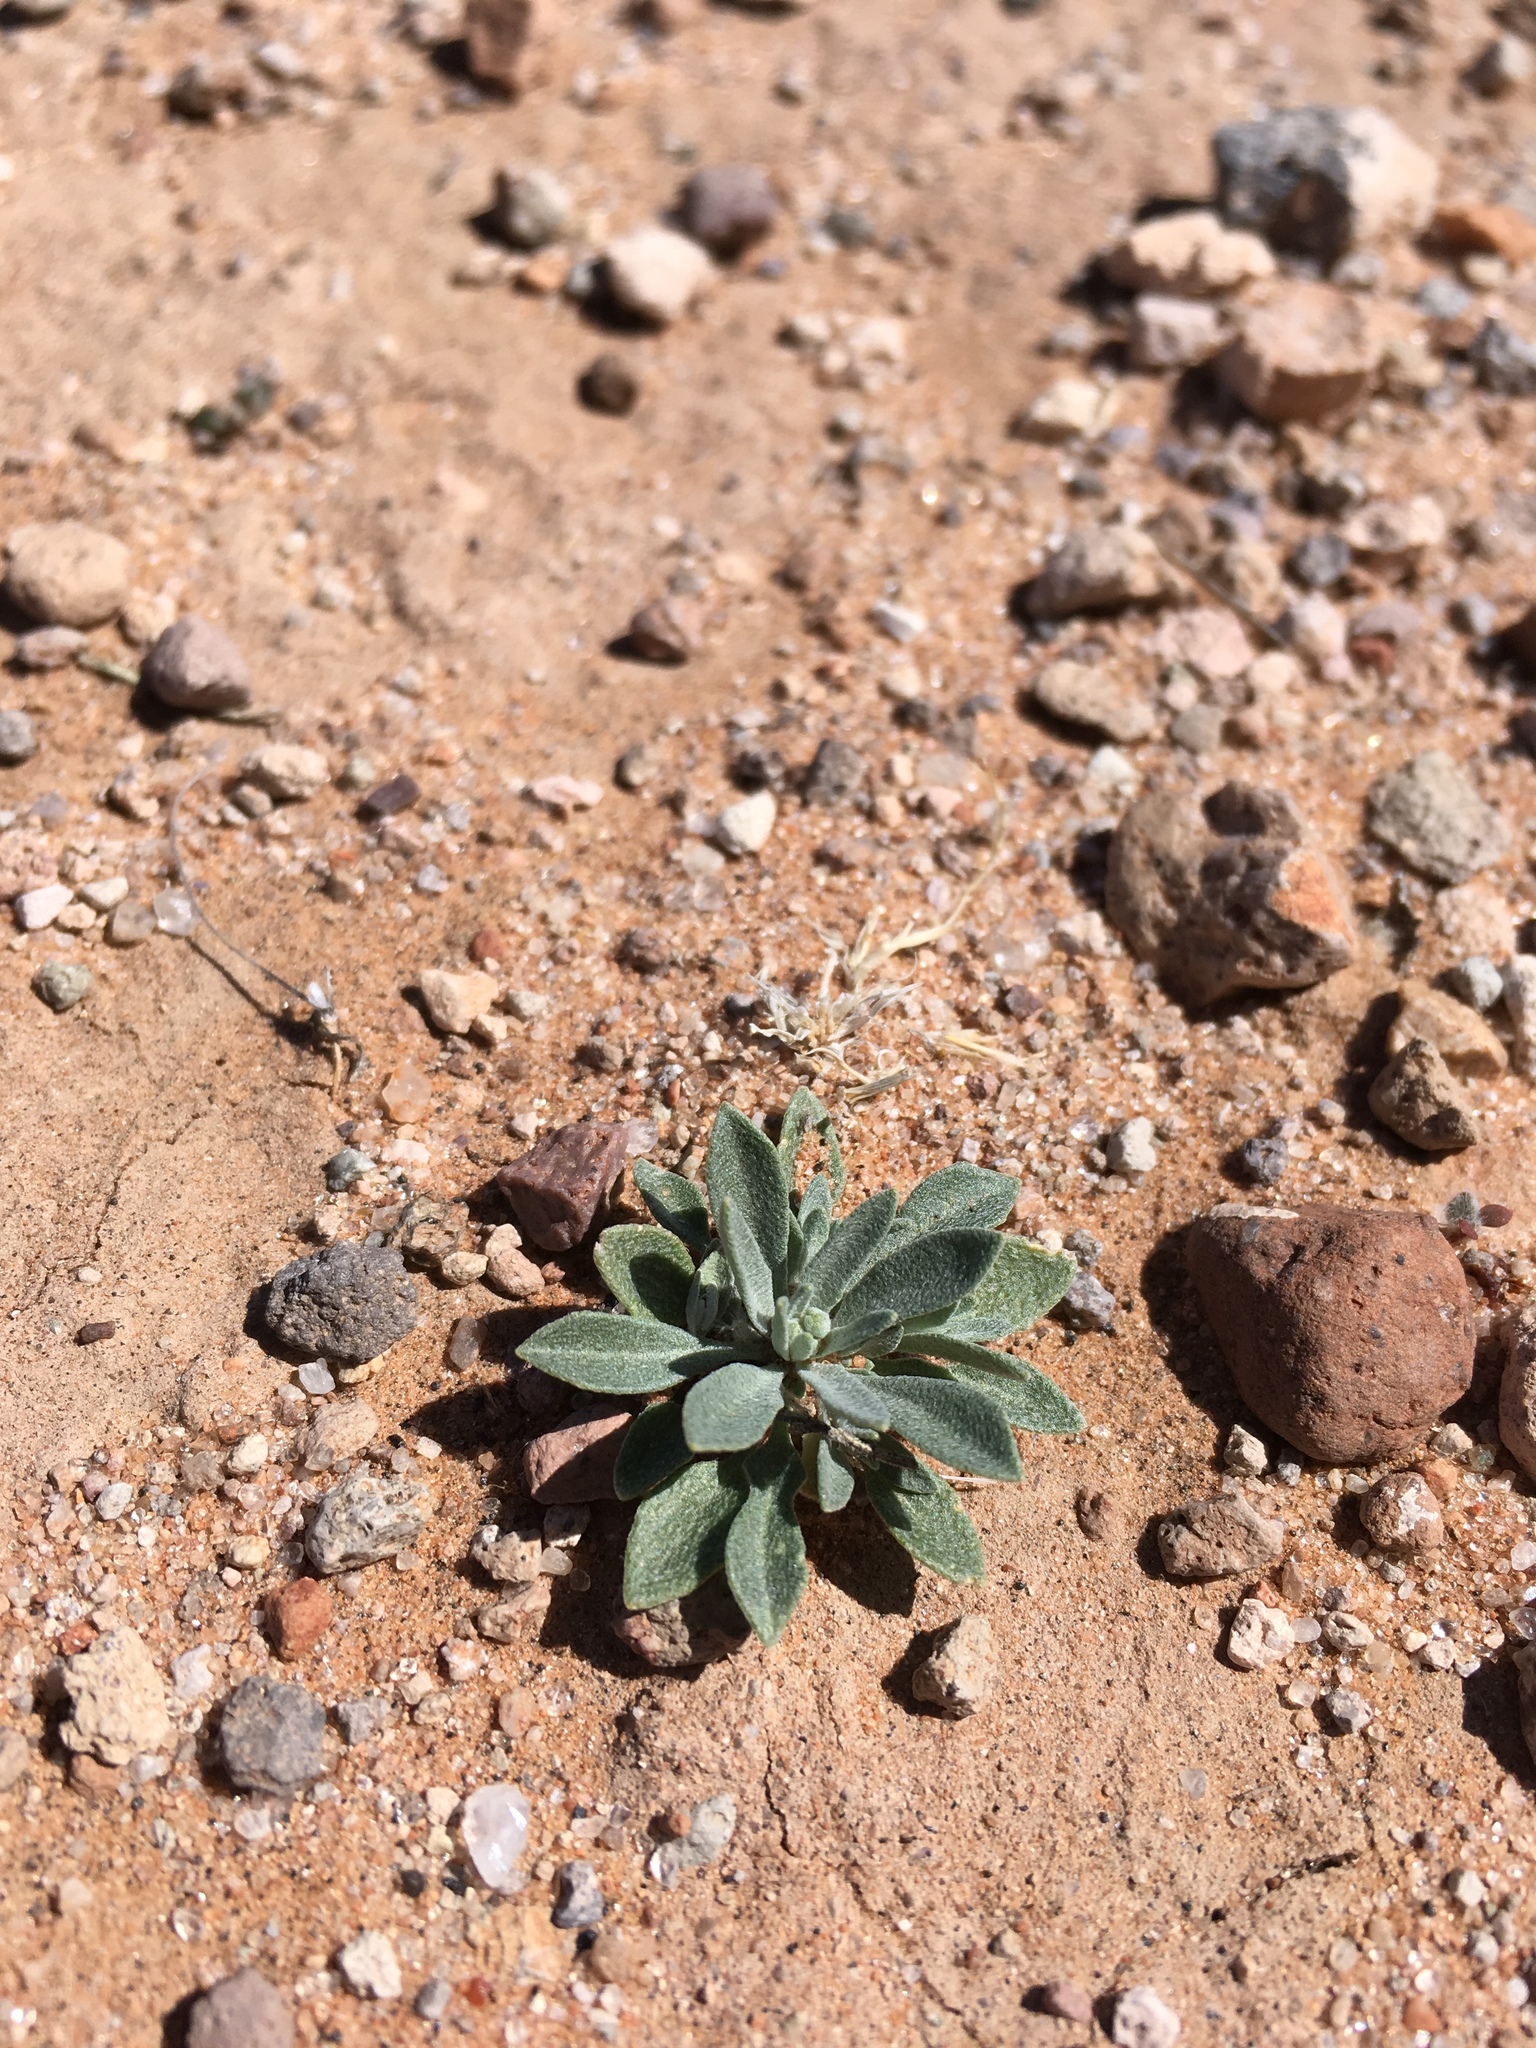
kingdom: Plantae
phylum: Tracheophyta
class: Magnoliopsida
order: Brassicales
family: Brassicaceae
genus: Physaria
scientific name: Physaria gordonii
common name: Gordon's bladderpod
